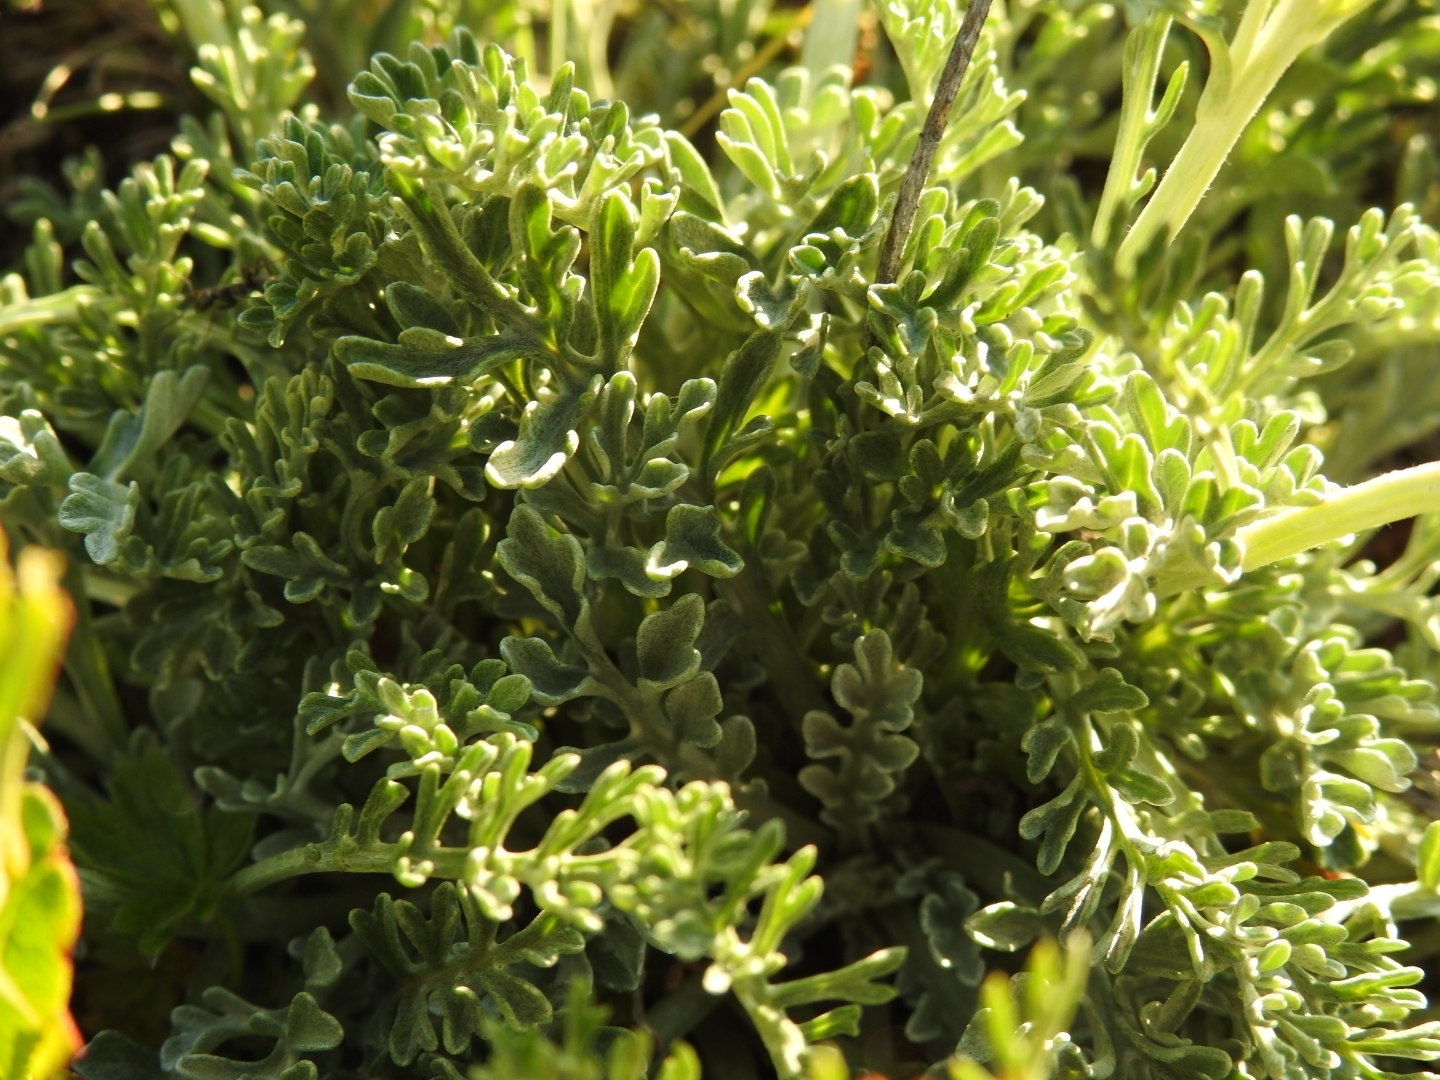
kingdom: Plantae
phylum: Tracheophyta
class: Magnoliopsida
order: Asterales
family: Asteraceae
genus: Jacobaea
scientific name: Jacobaea incana
